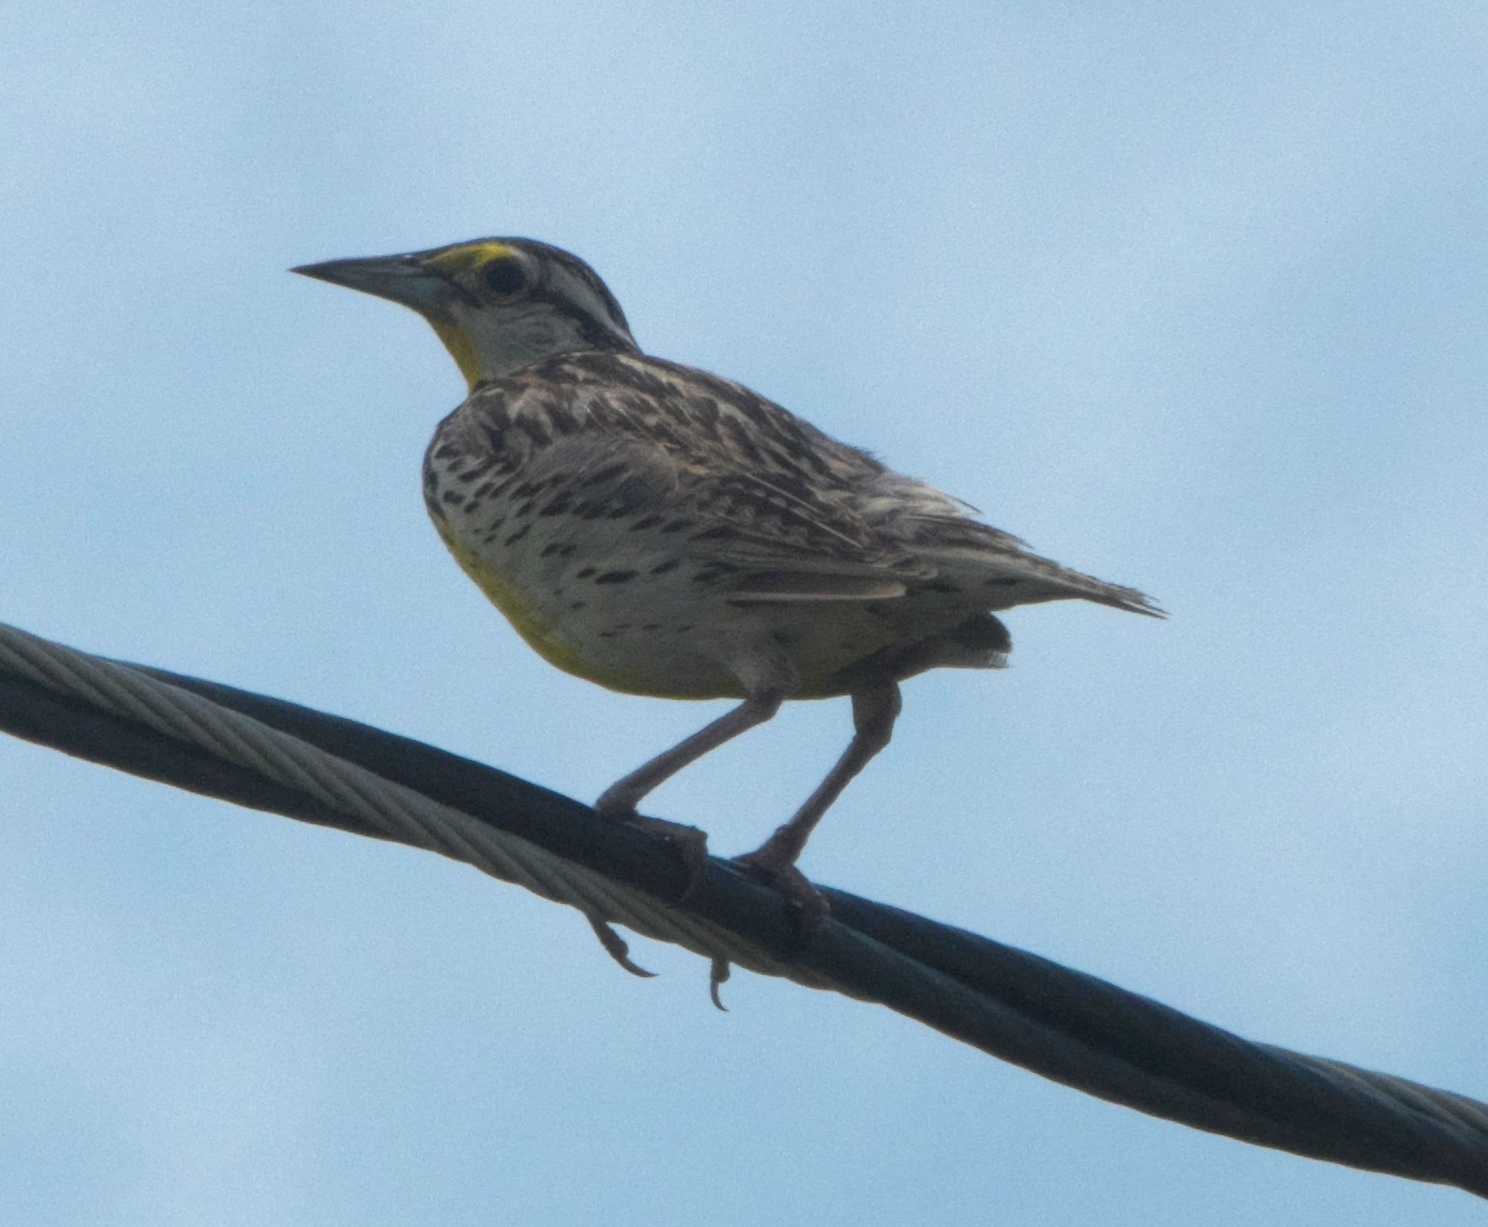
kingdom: Animalia
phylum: Chordata
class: Aves
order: Passeriformes
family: Icteridae
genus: Sturnella
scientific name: Sturnella magna
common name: Eastern meadowlark
